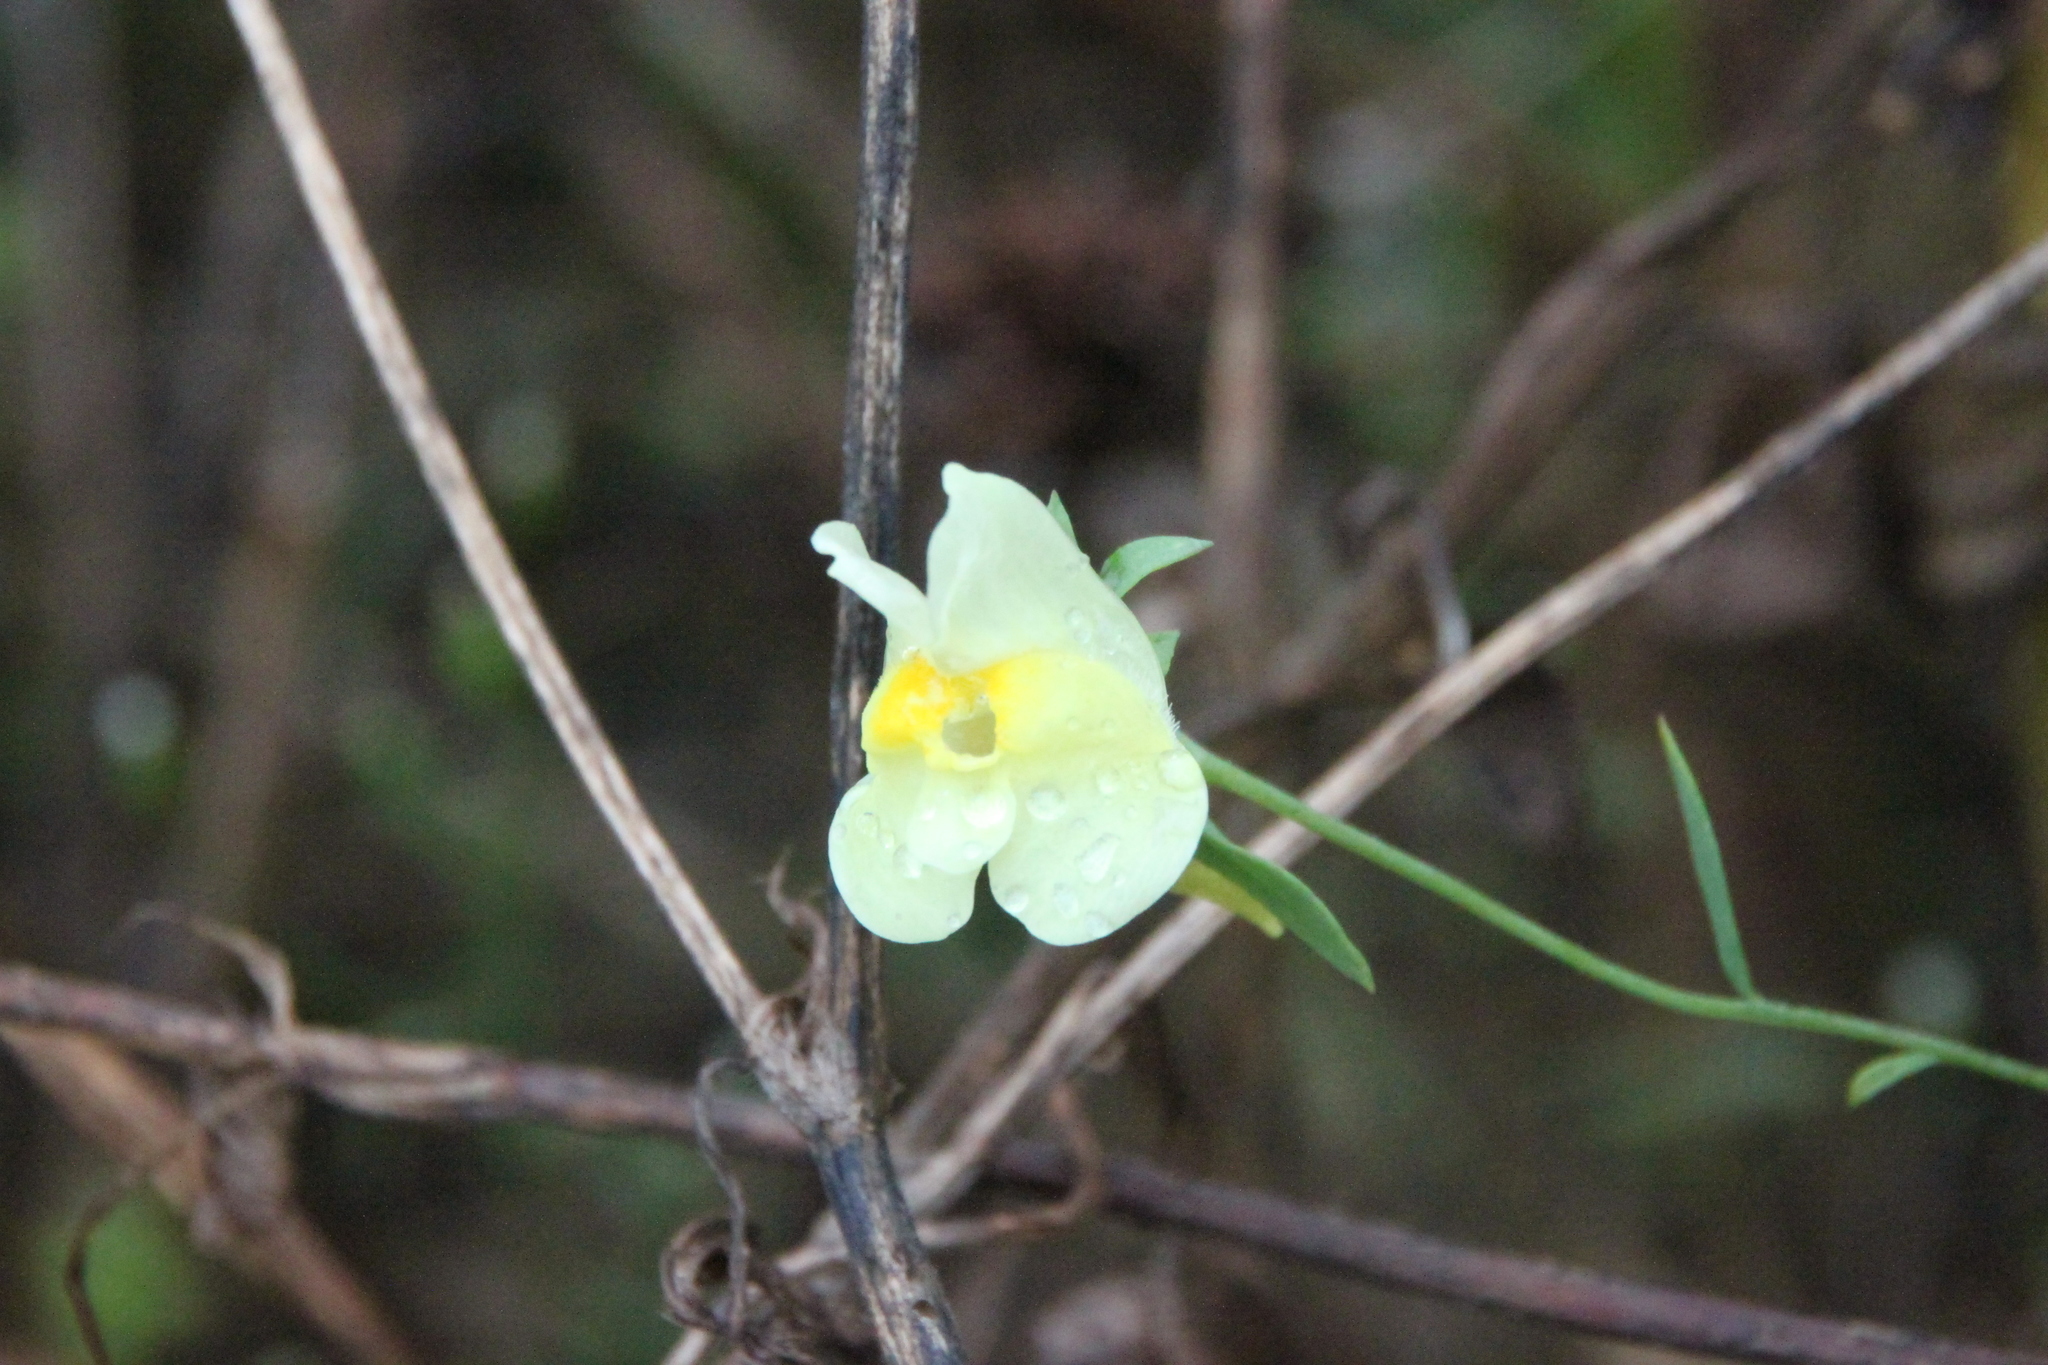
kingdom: Plantae
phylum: Tracheophyta
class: Magnoliopsida
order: Lamiales
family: Plantaginaceae
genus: Linaria
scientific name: Linaria vulgaris
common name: Butter and eggs
